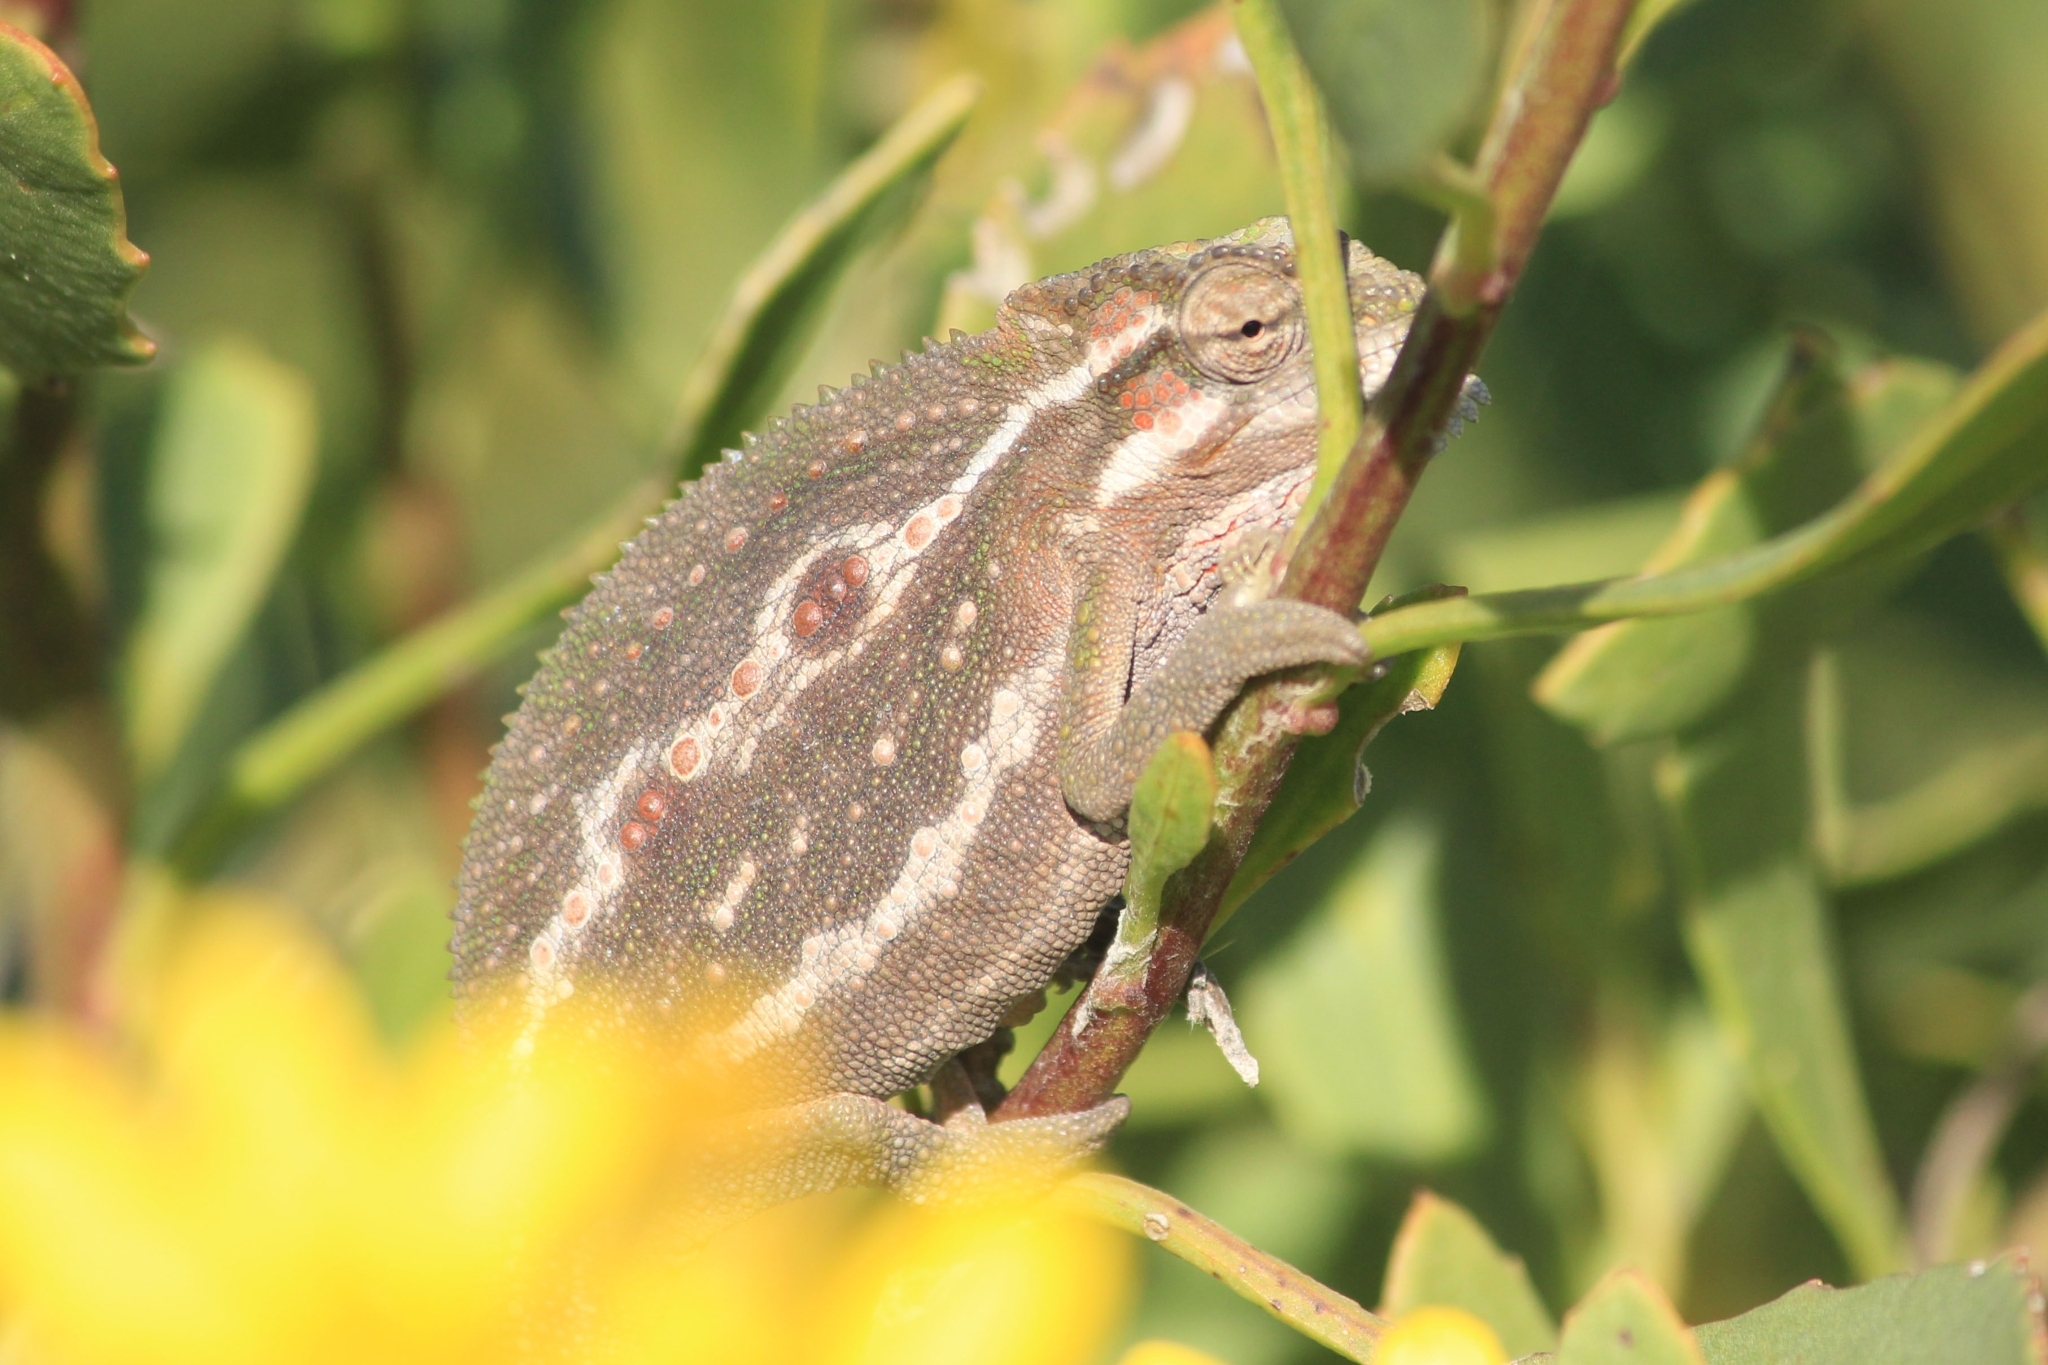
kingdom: Animalia
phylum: Chordata
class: Squamata
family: Chamaeleonidae
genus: Bradypodion
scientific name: Bradypodion pumilum
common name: Cape dwarf chameleon
